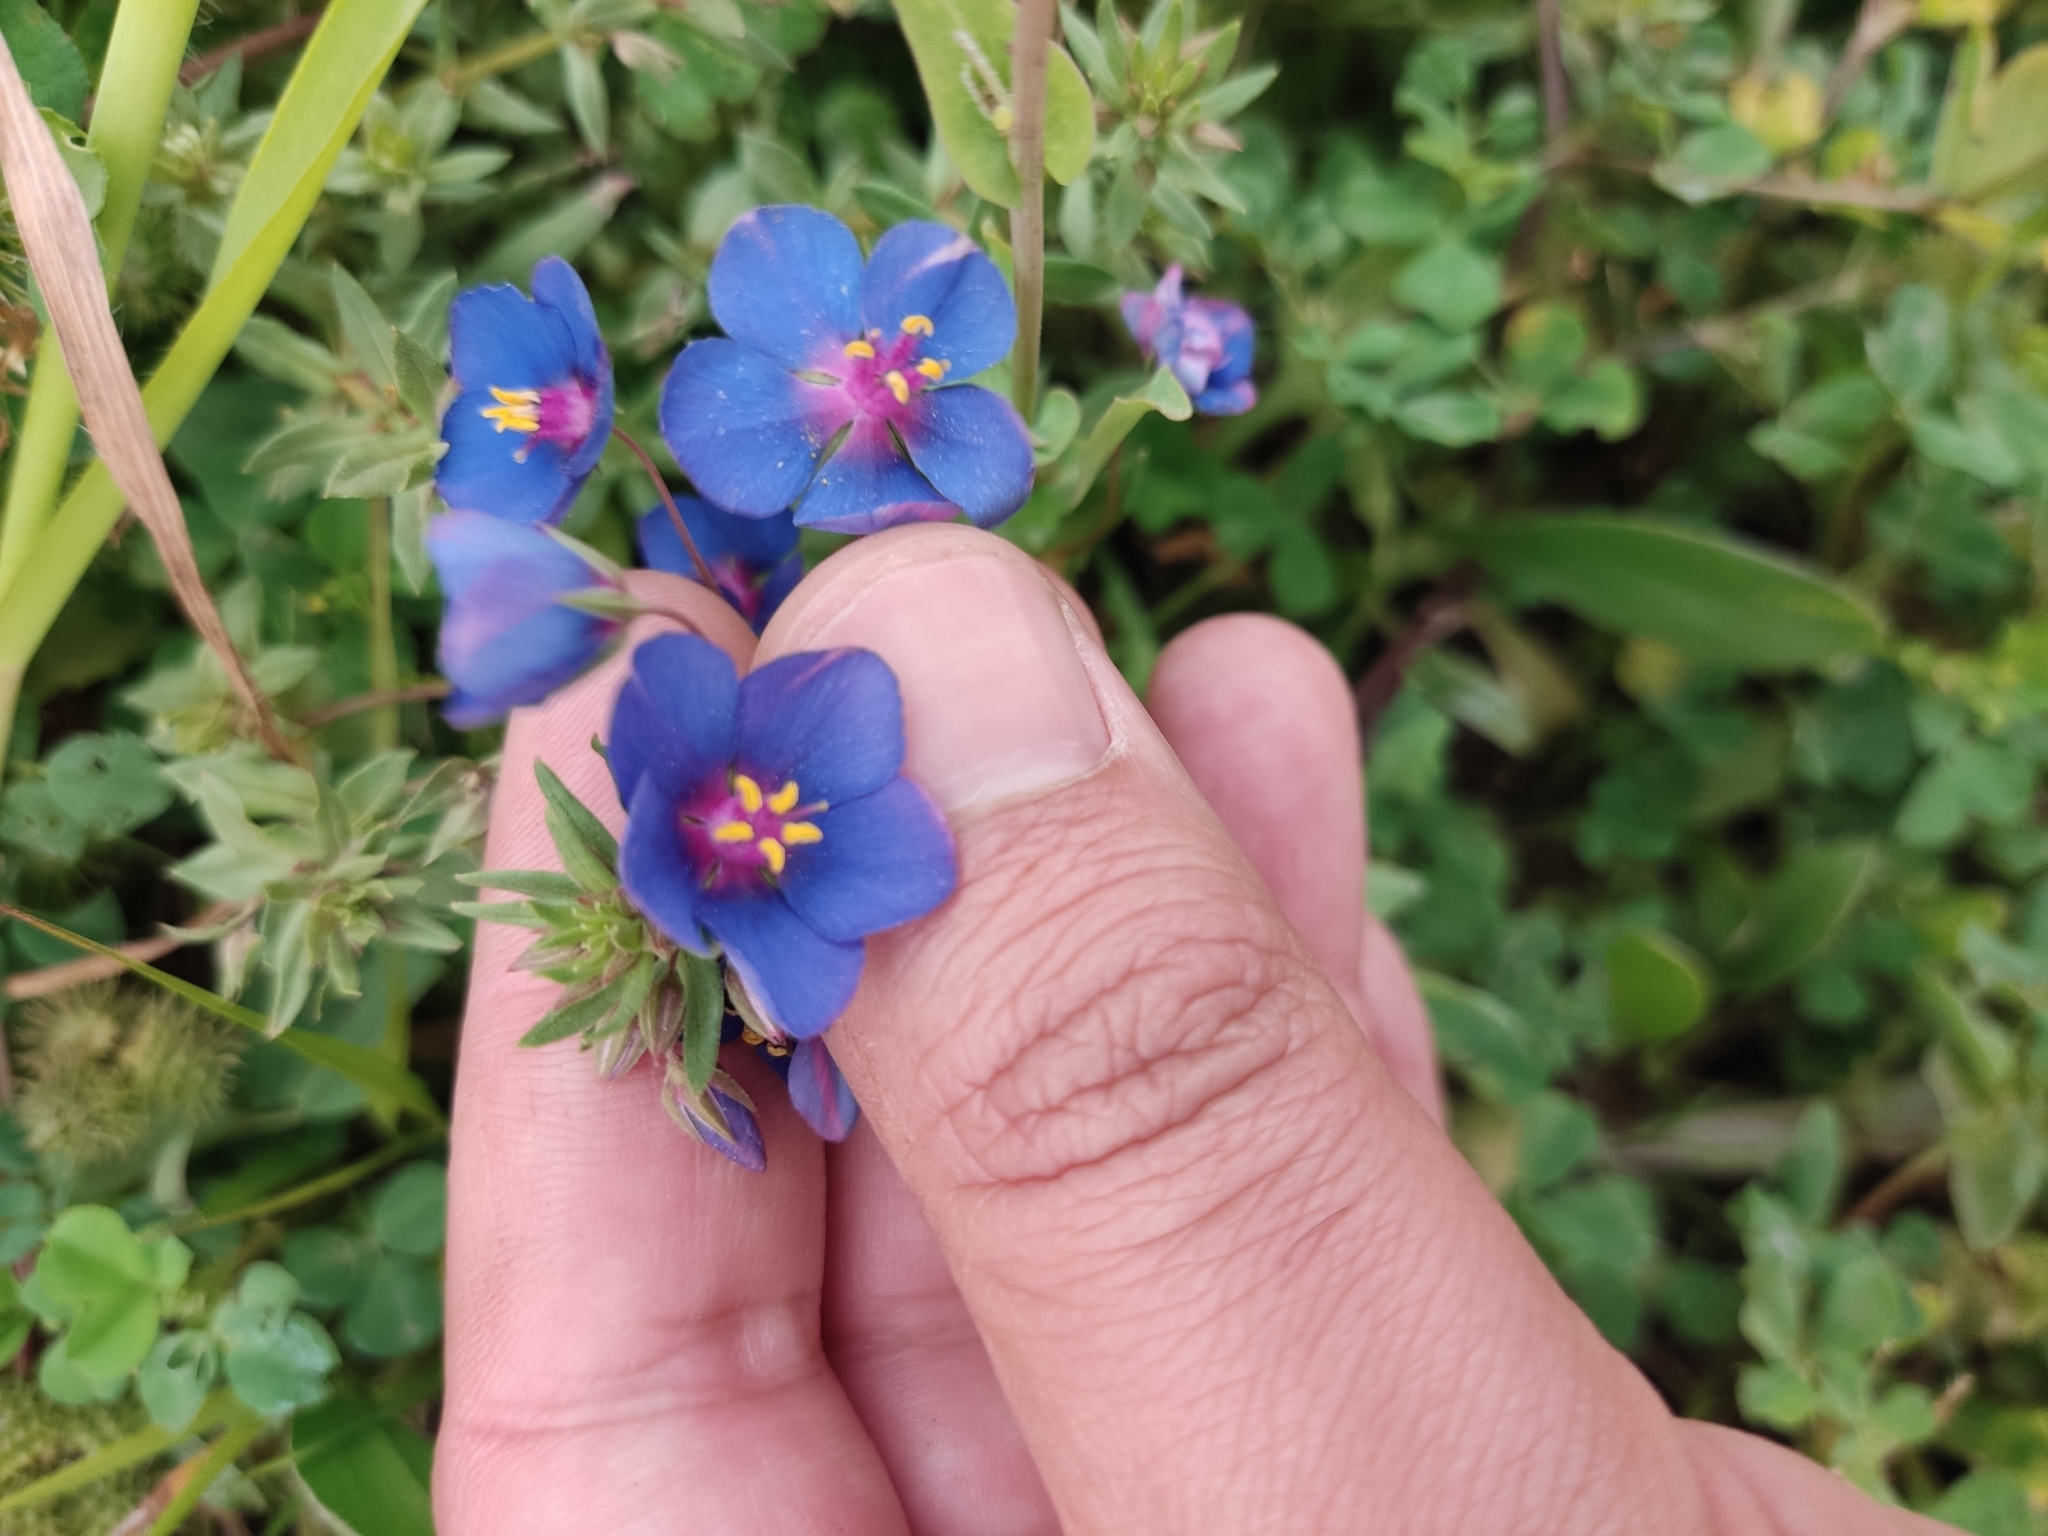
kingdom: Plantae
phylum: Tracheophyta
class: Magnoliopsida
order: Ericales
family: Primulaceae
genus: Lysimachia
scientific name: Lysimachia monelli
